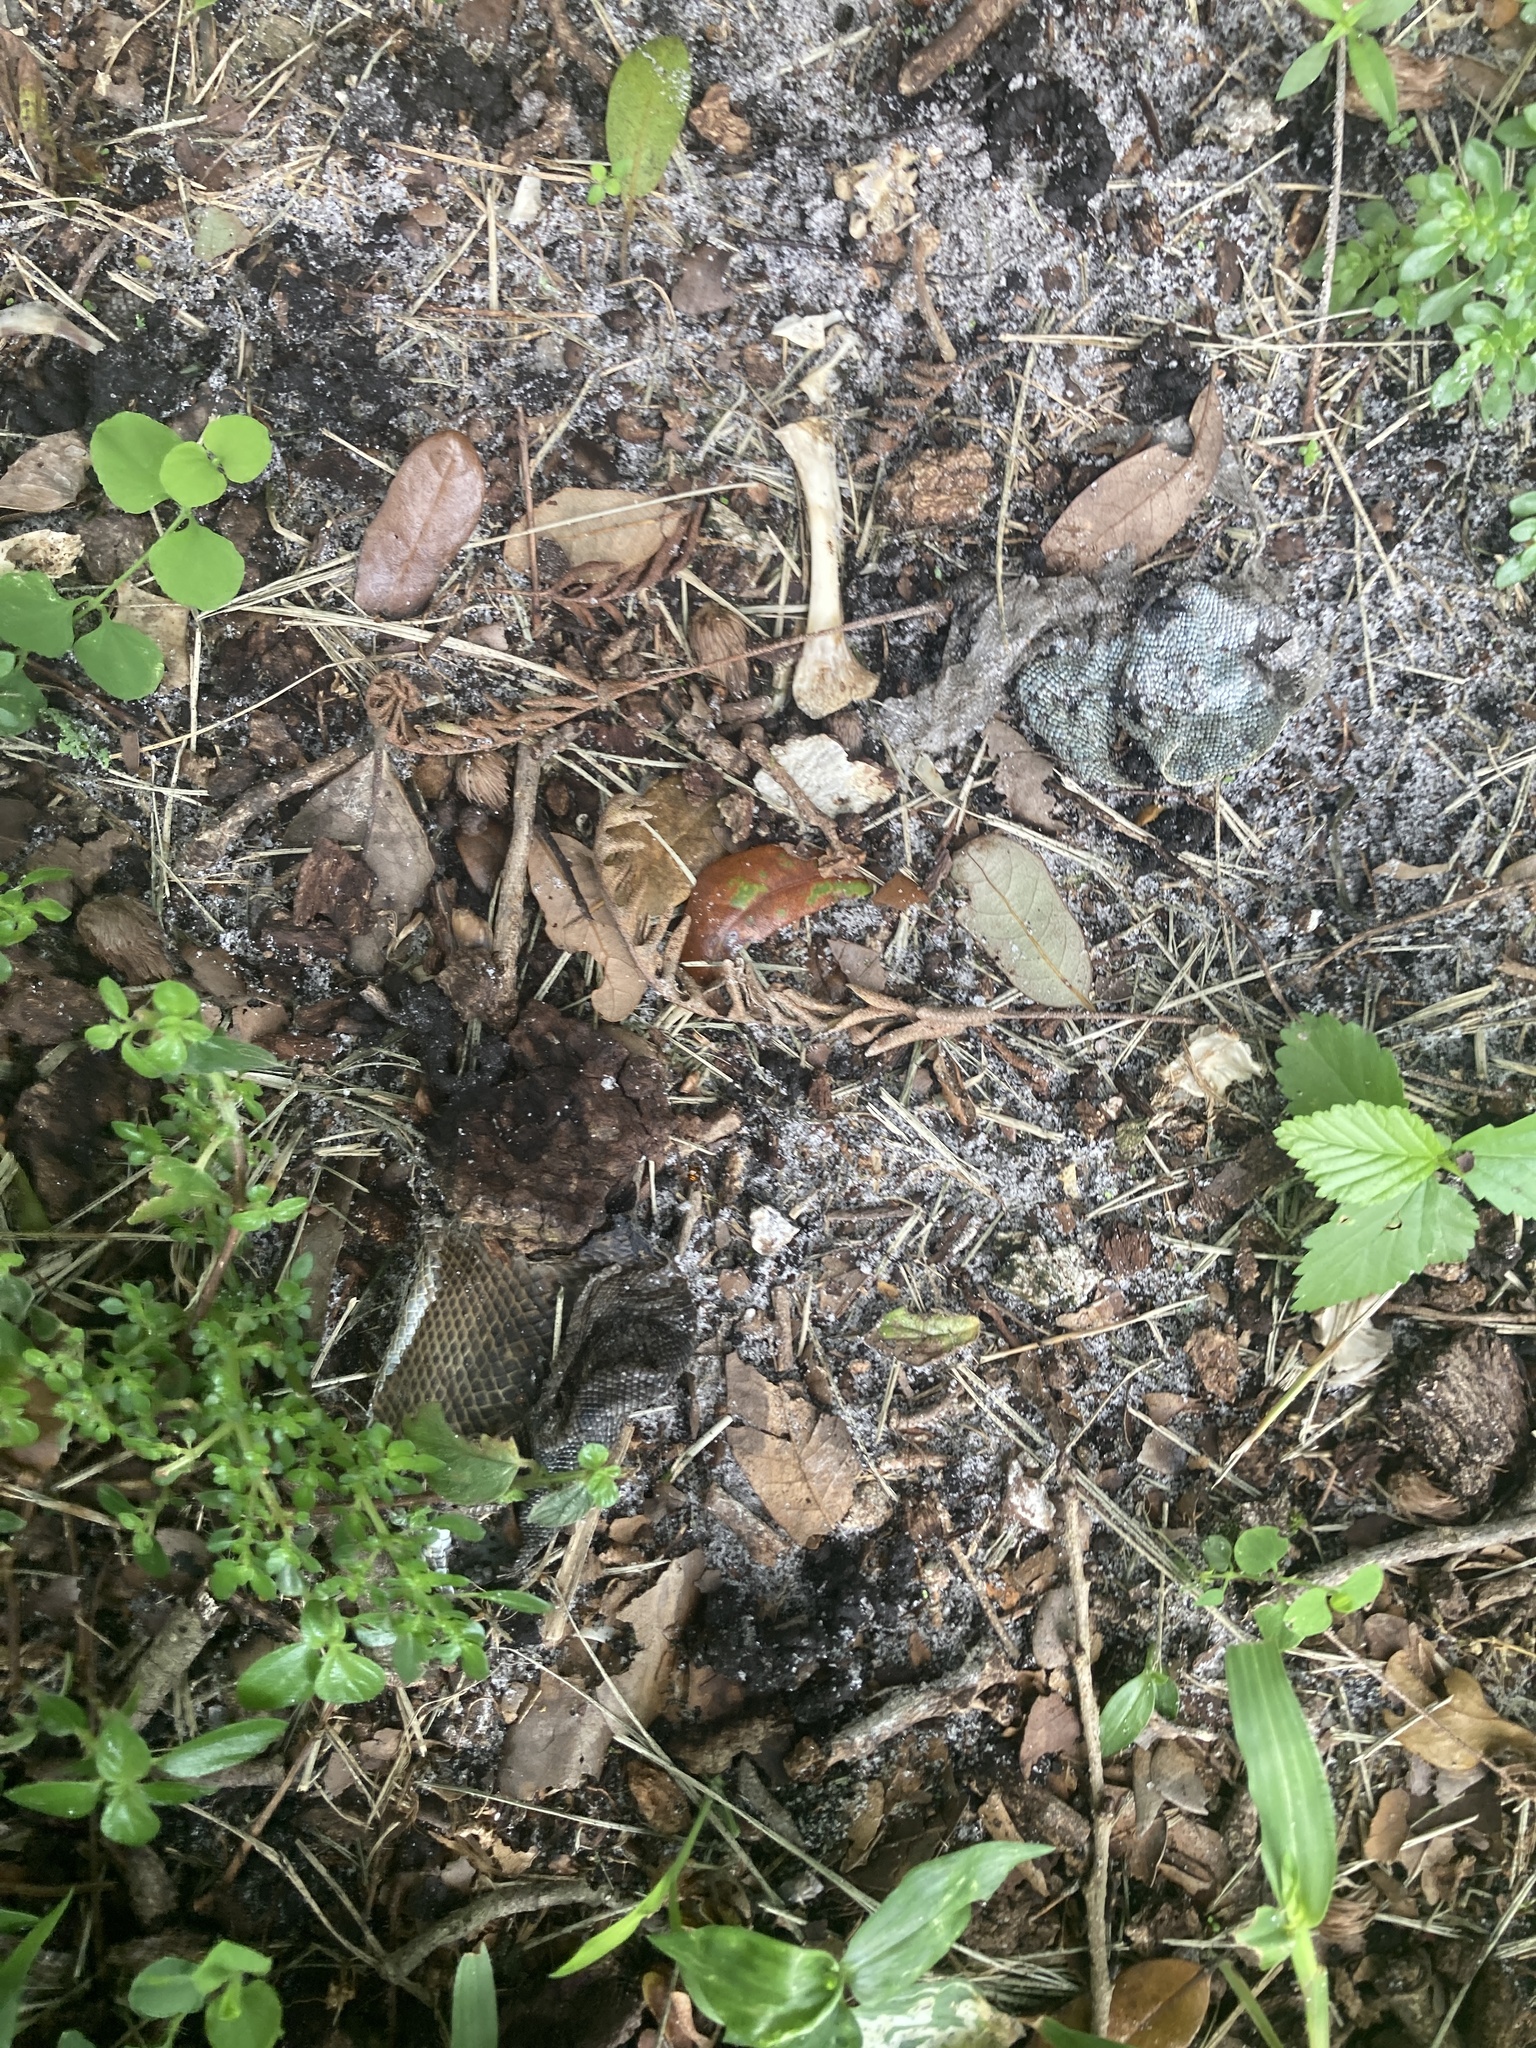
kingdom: Animalia
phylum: Chordata
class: Squamata
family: Iguanidae
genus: Iguana
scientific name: Iguana iguana
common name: Green iguana
